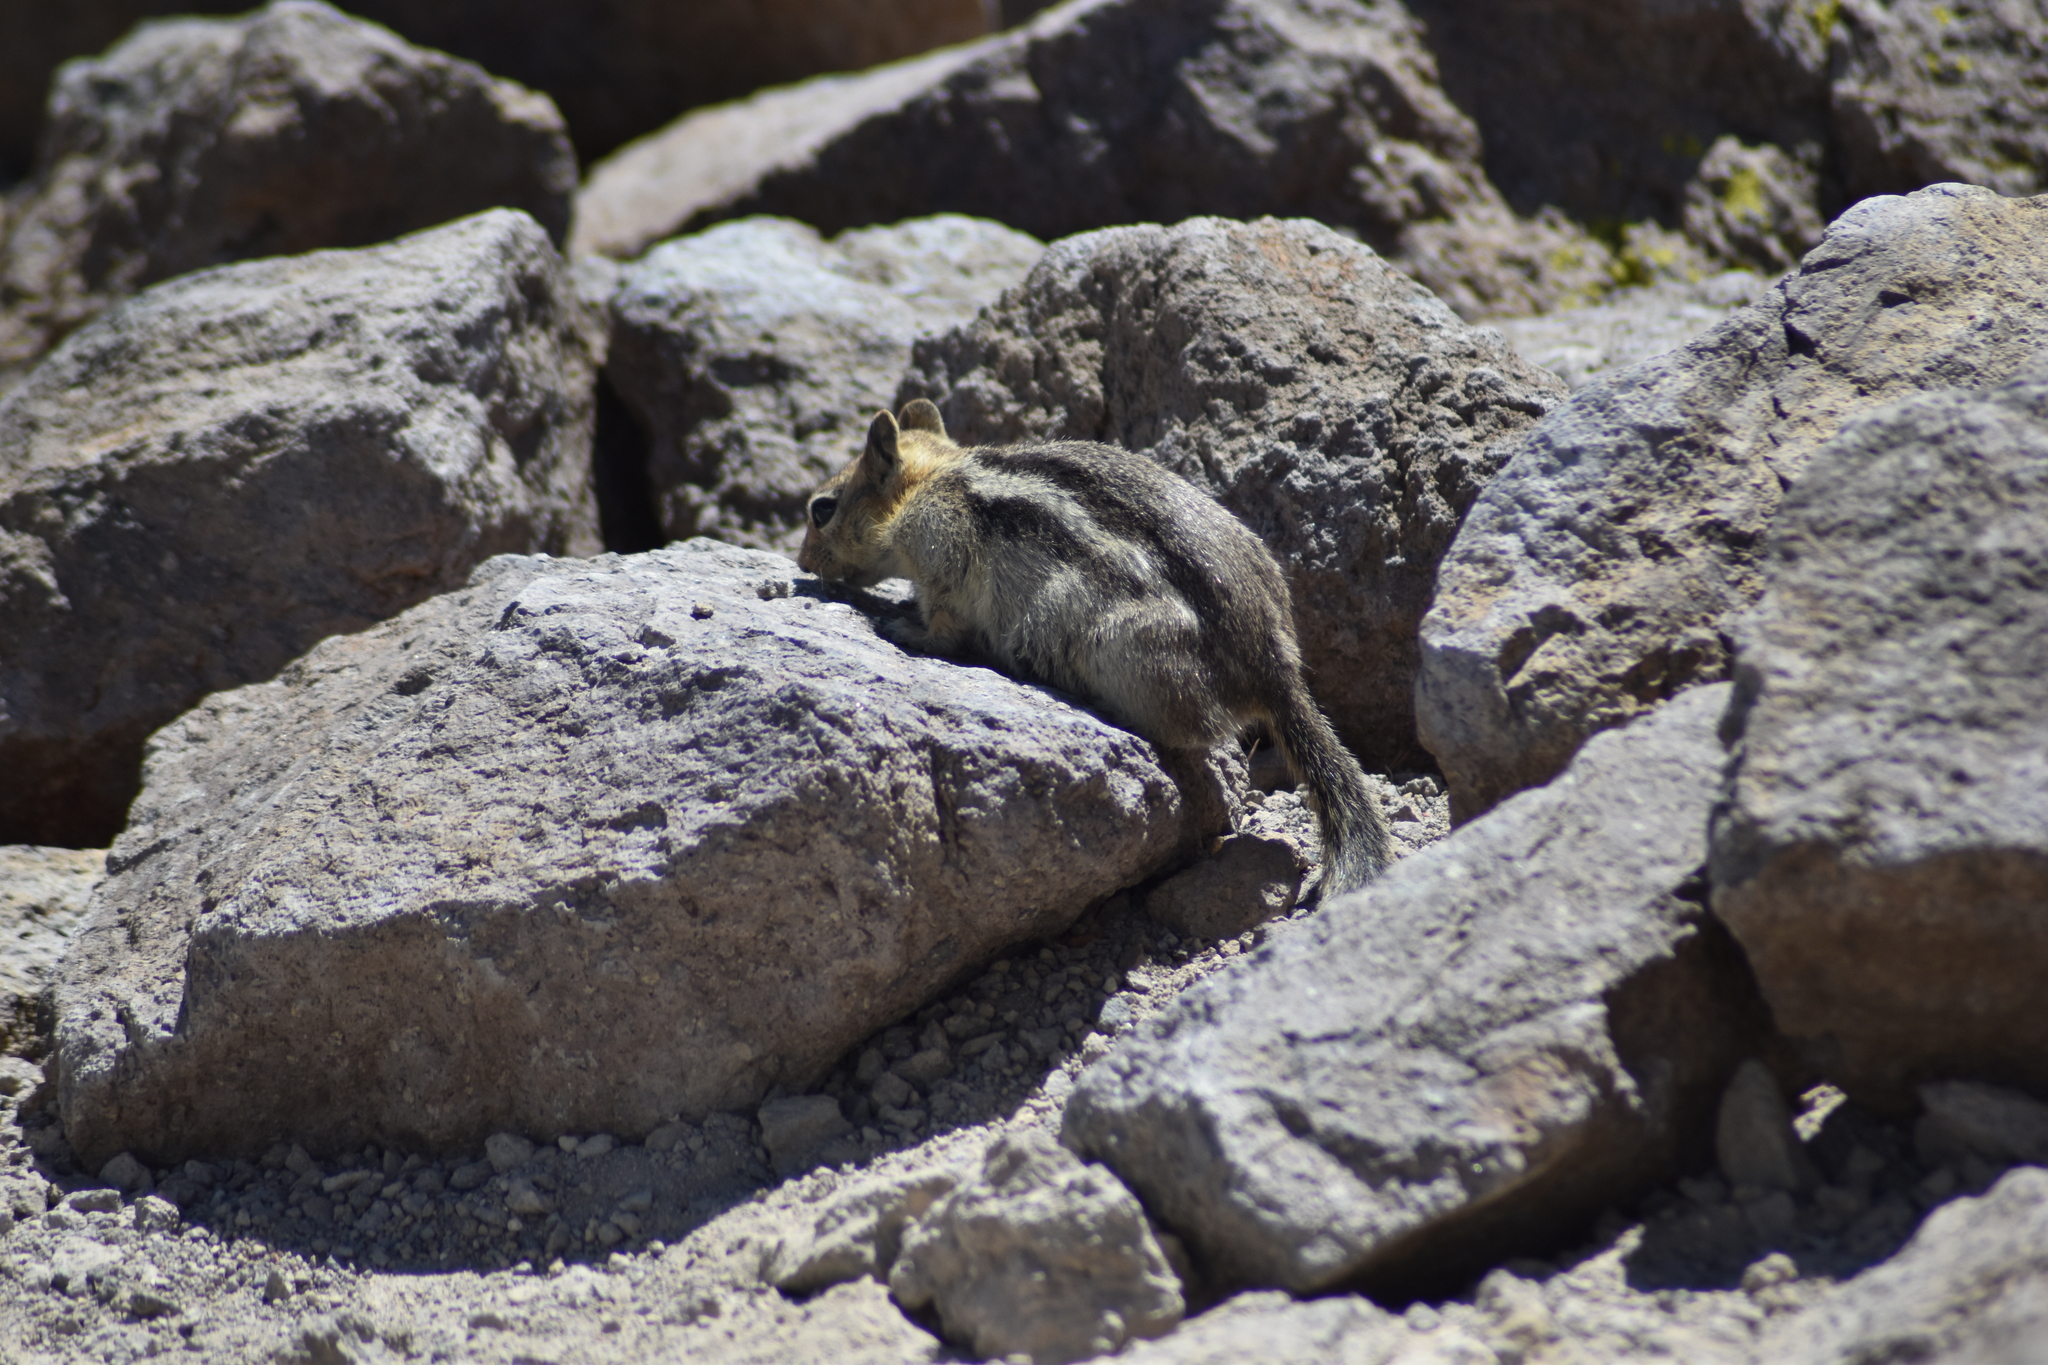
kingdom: Animalia
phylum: Chordata
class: Mammalia
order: Rodentia
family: Sciuridae
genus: Callospermophilus
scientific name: Callospermophilus lateralis
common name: Golden-mantled ground squirrel
